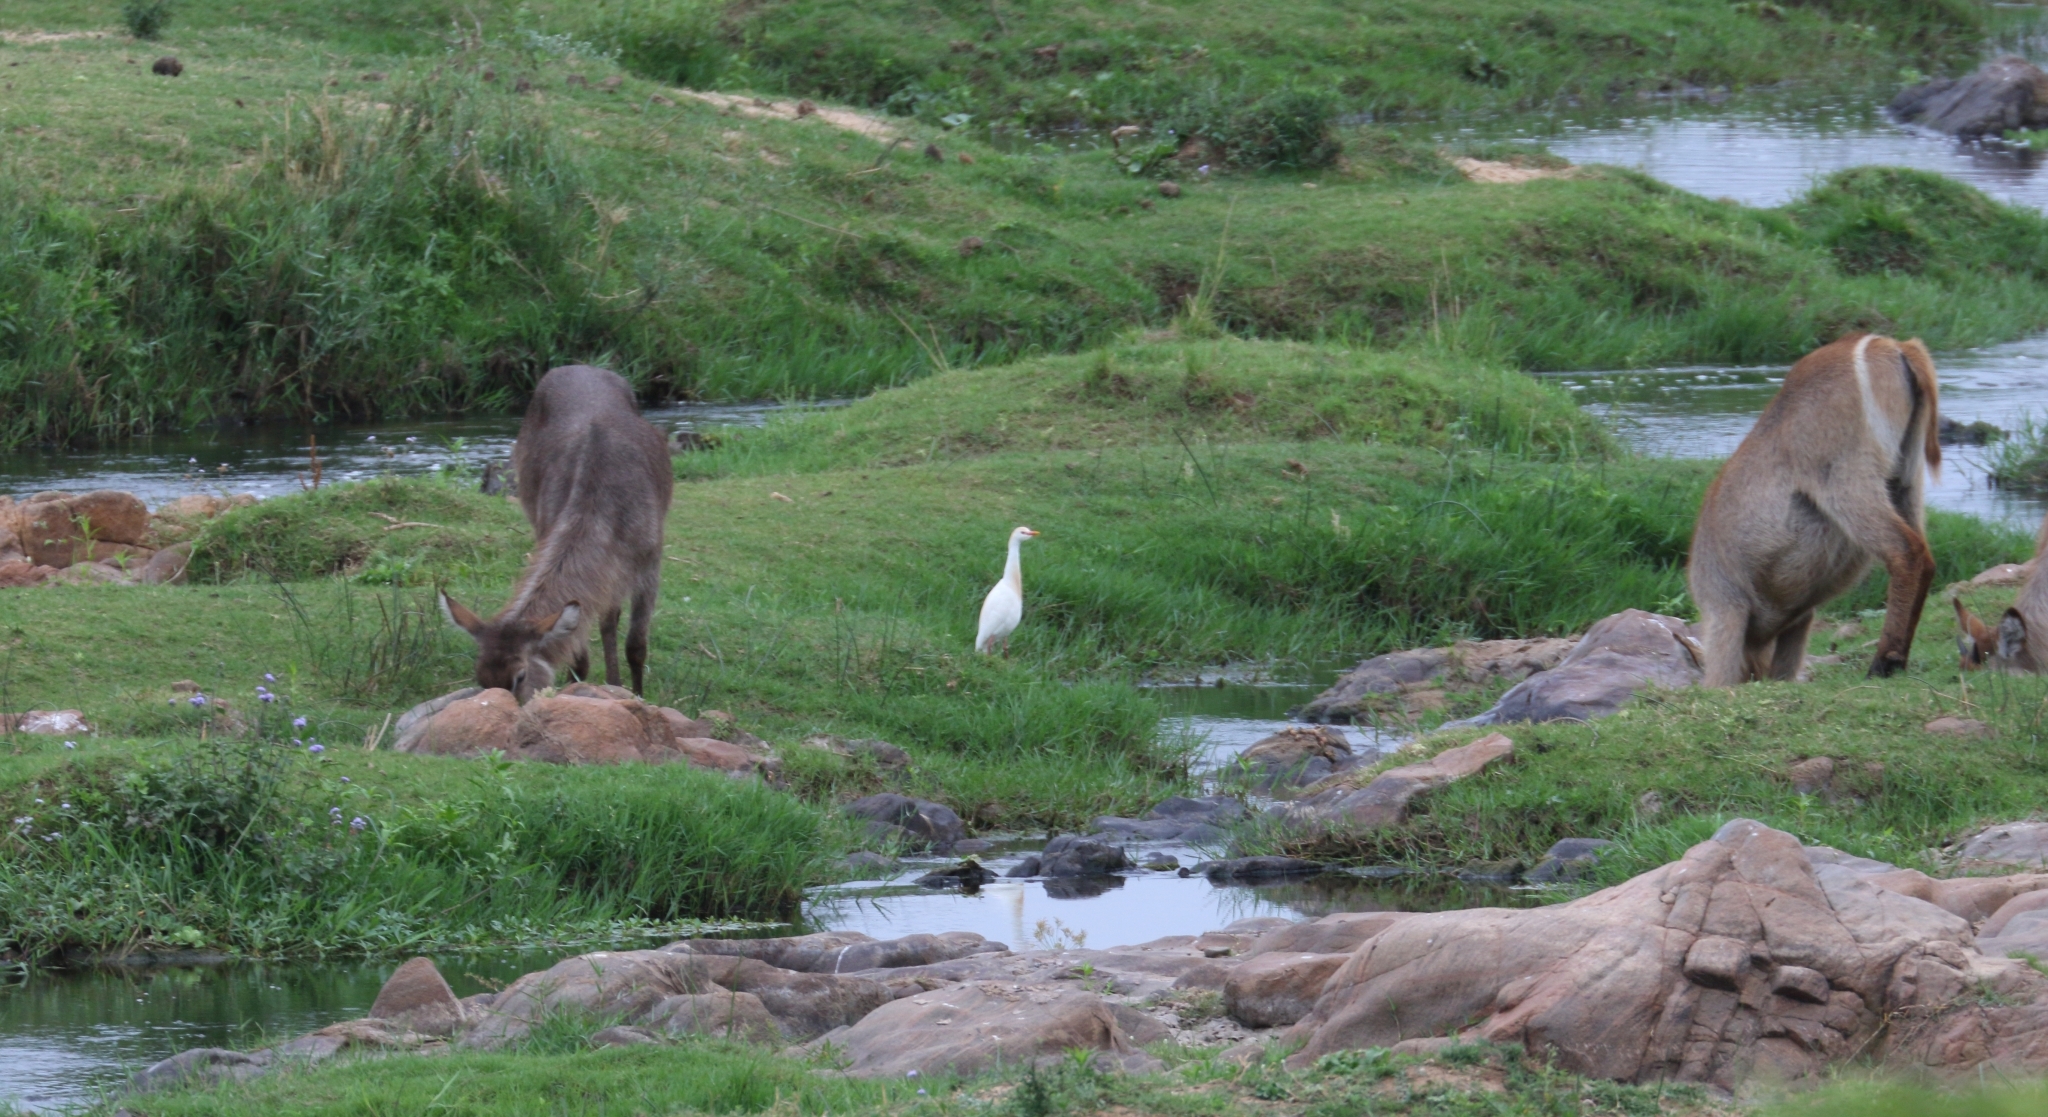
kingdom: Animalia
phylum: Chordata
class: Aves
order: Pelecaniformes
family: Ardeidae
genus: Bubulcus
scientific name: Bubulcus ibis
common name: Cattle egret
